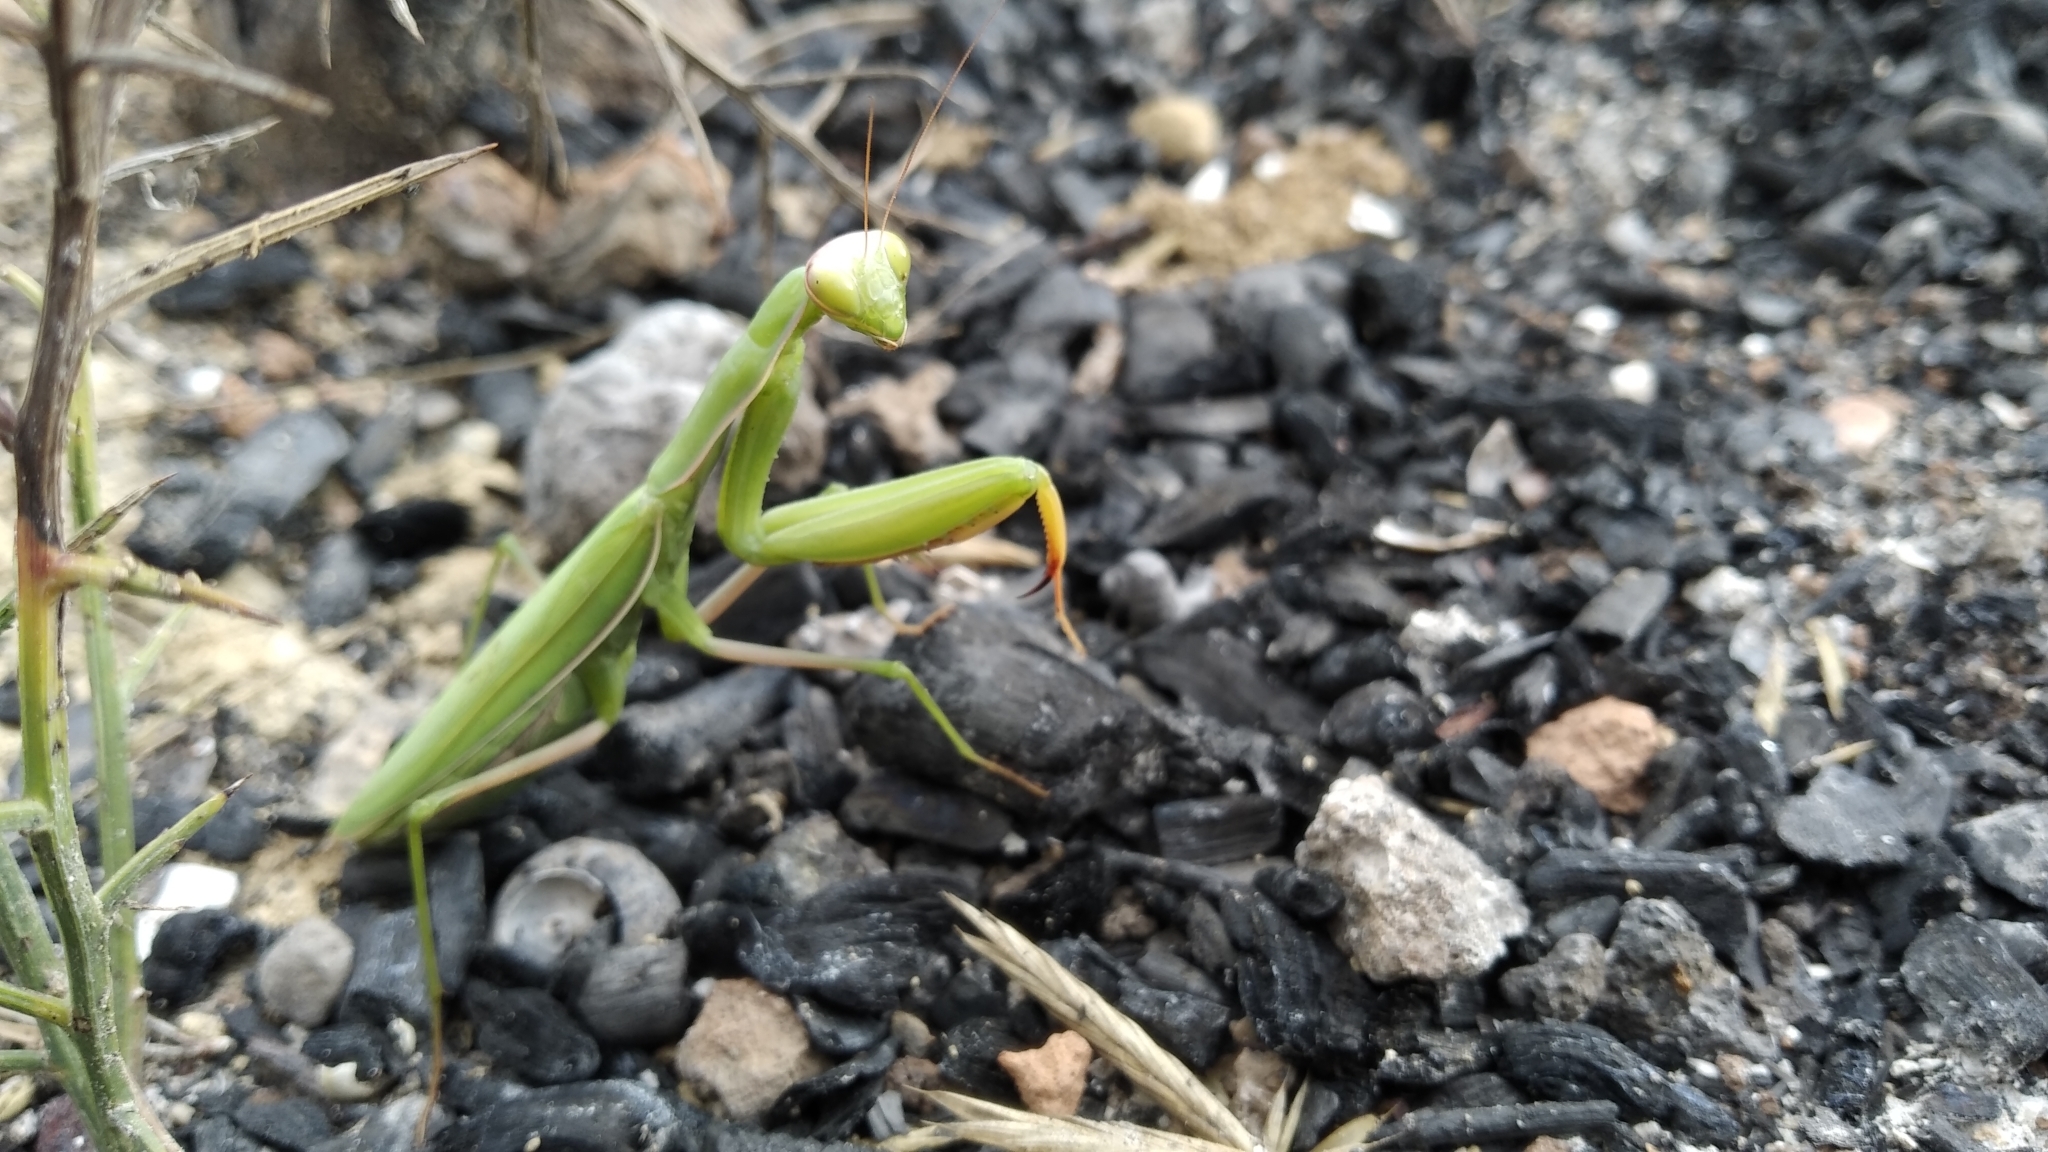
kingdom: Animalia
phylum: Arthropoda
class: Insecta
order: Mantodea
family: Mantidae
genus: Mantis
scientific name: Mantis religiosa
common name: Praying mantis
